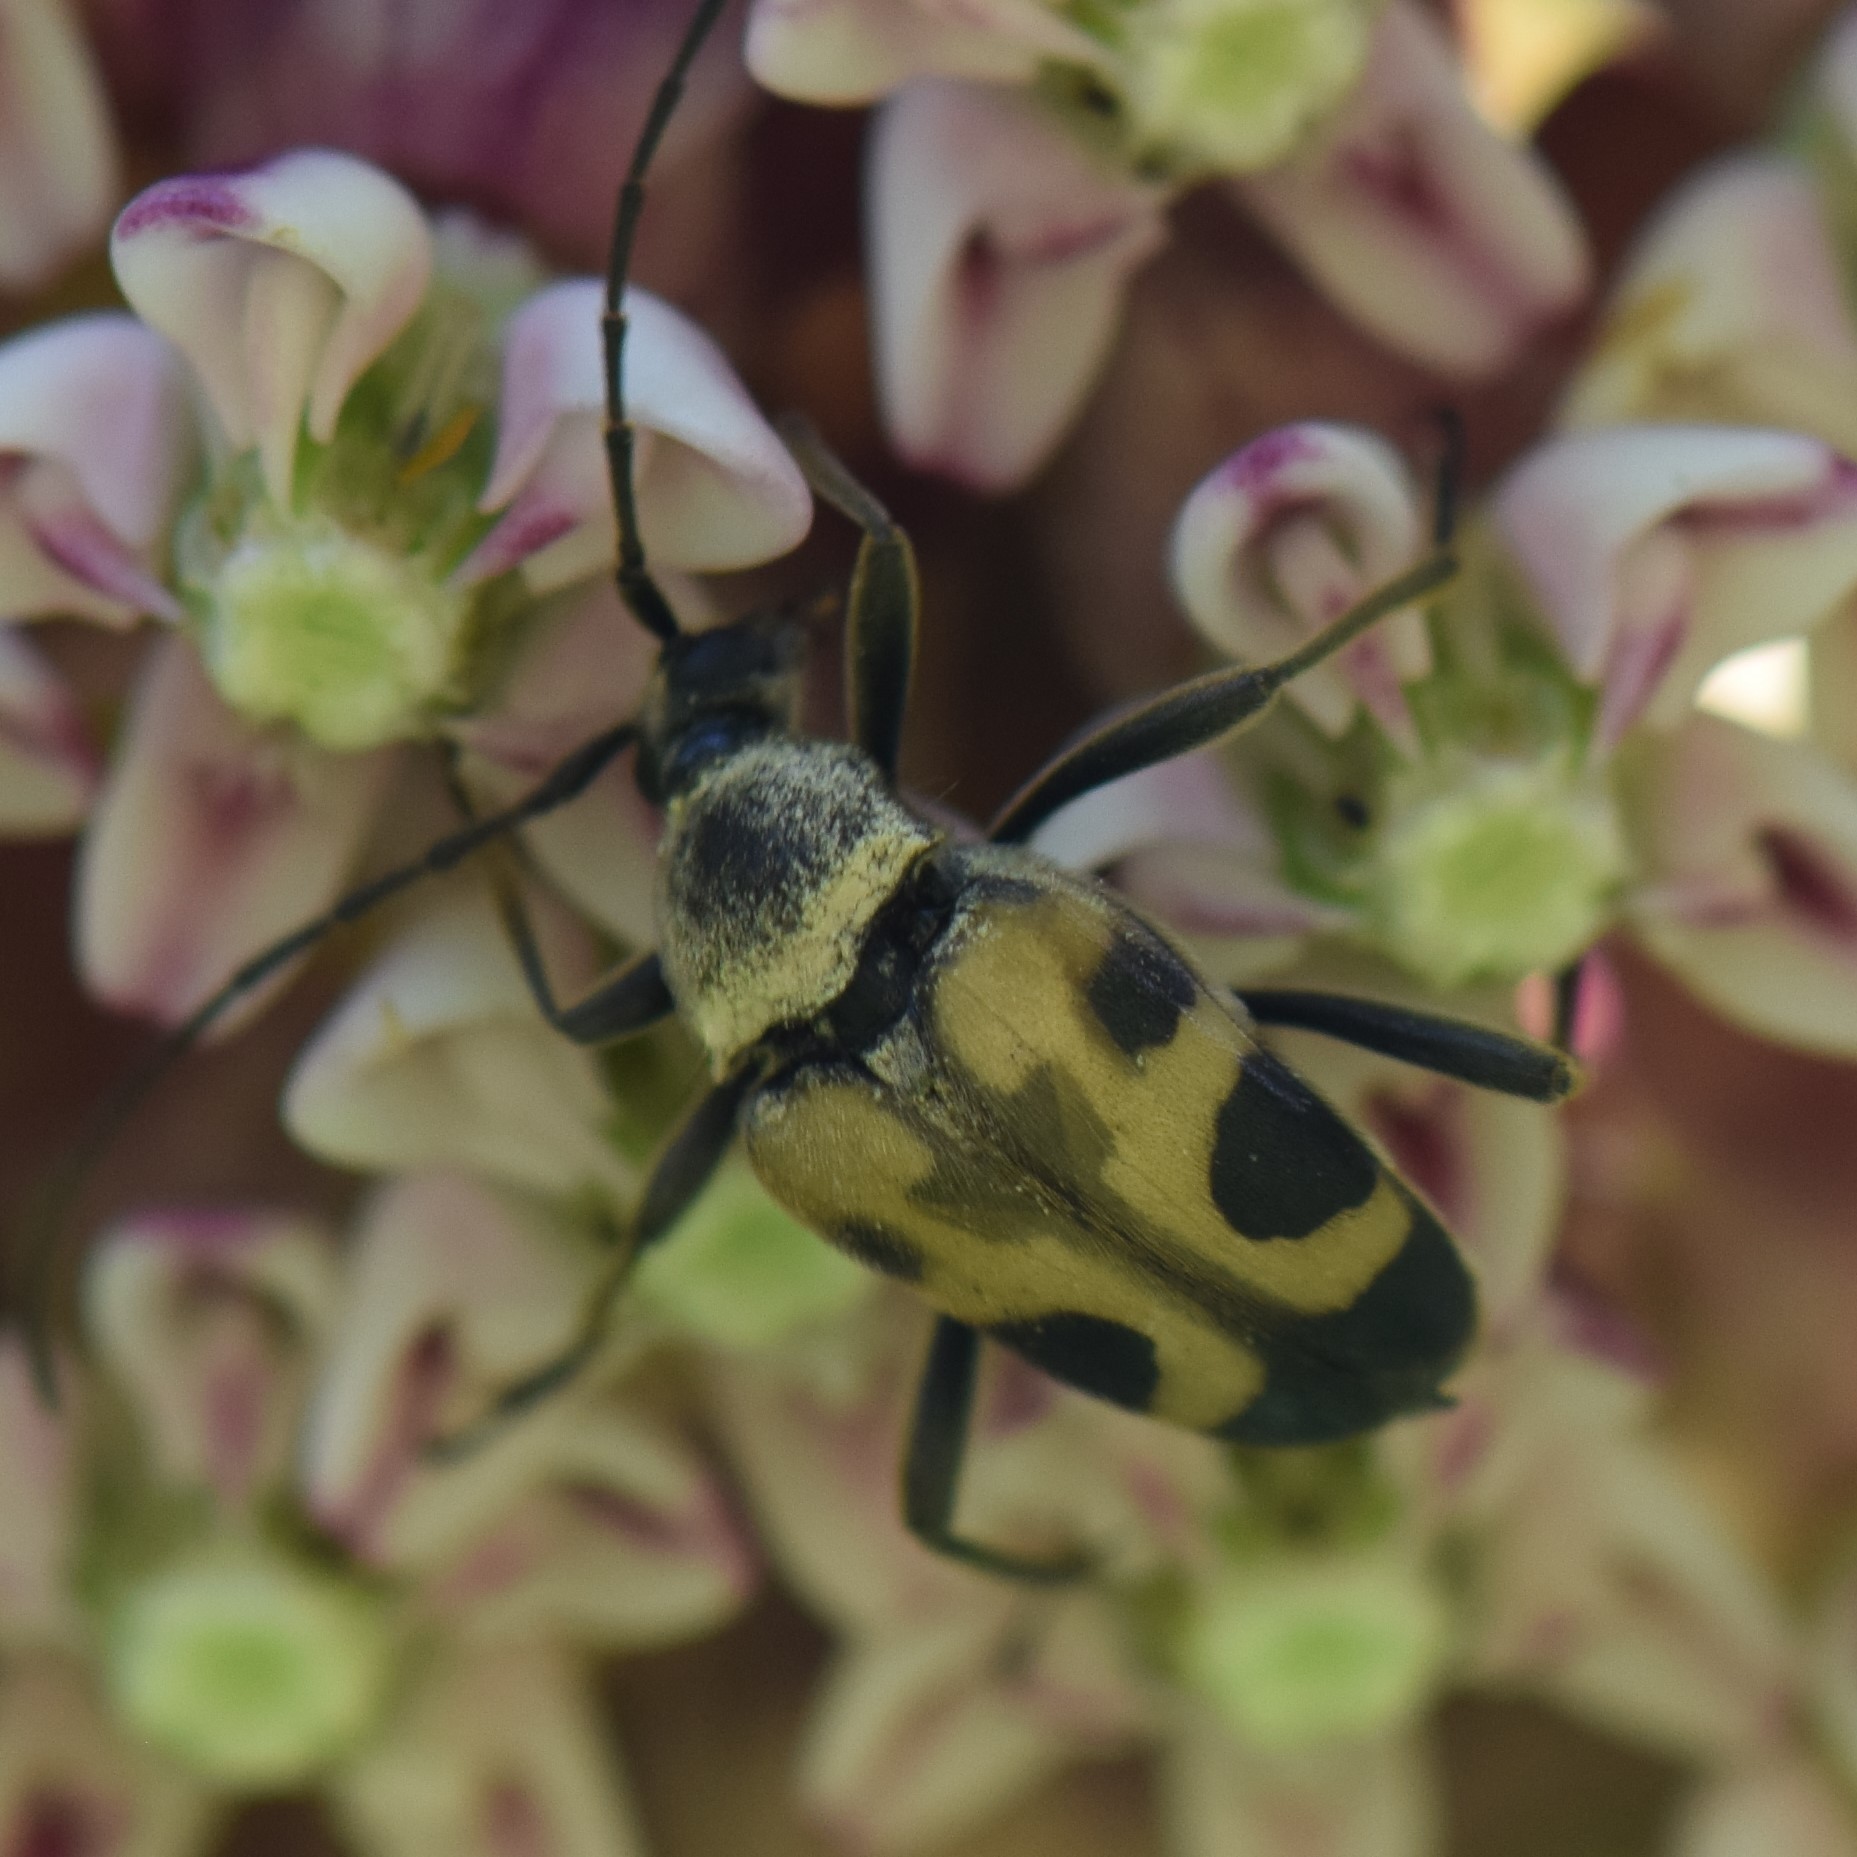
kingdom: Animalia
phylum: Arthropoda
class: Insecta
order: Coleoptera
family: Cerambycidae
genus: Judolia
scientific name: Judolia cordifera
